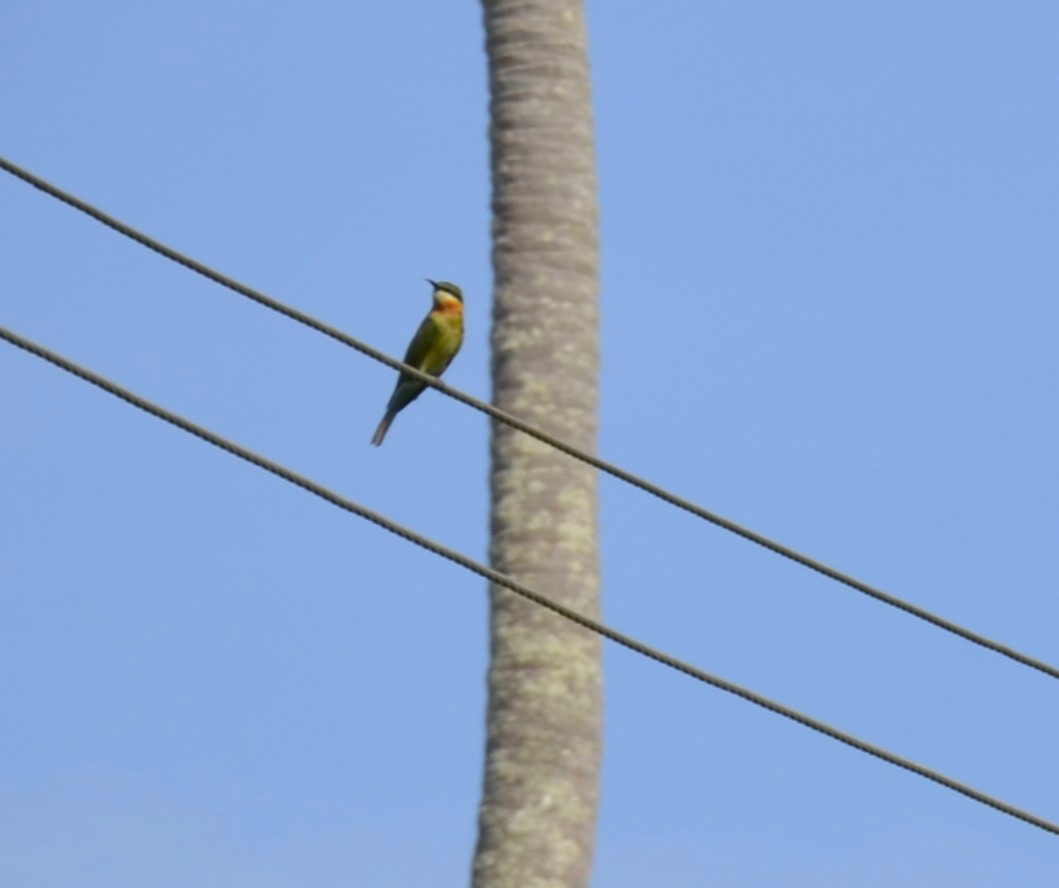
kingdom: Animalia
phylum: Chordata
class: Aves
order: Coraciiformes
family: Meropidae
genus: Merops
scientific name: Merops philippinus
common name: Blue-tailed bee-eater
